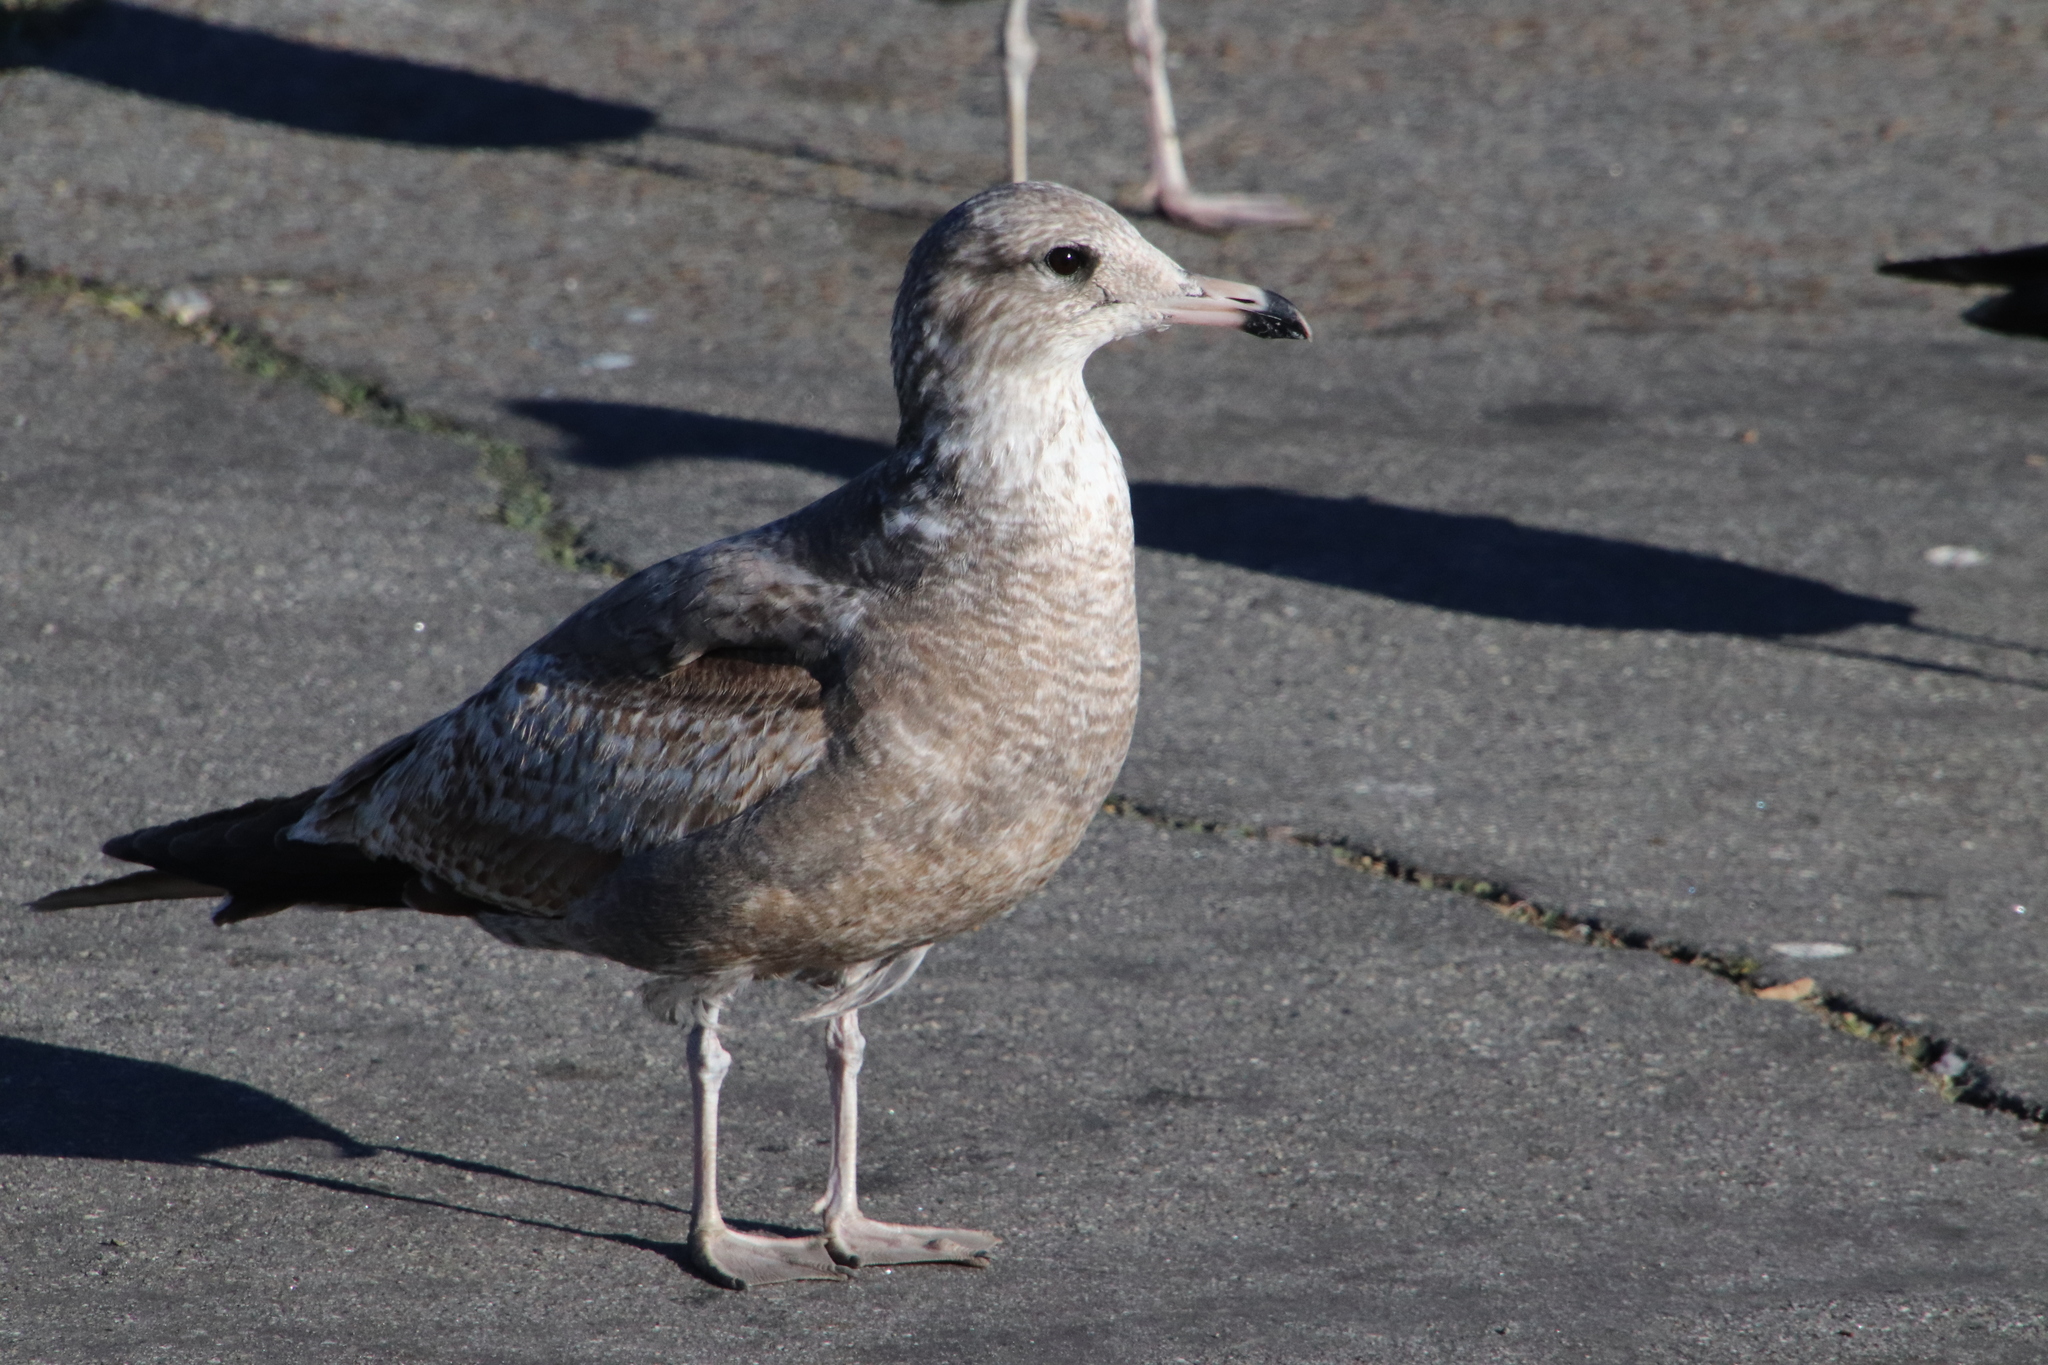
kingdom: Animalia
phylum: Chordata
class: Aves
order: Charadriiformes
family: Laridae
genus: Larus
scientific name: Larus californicus
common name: California gull
